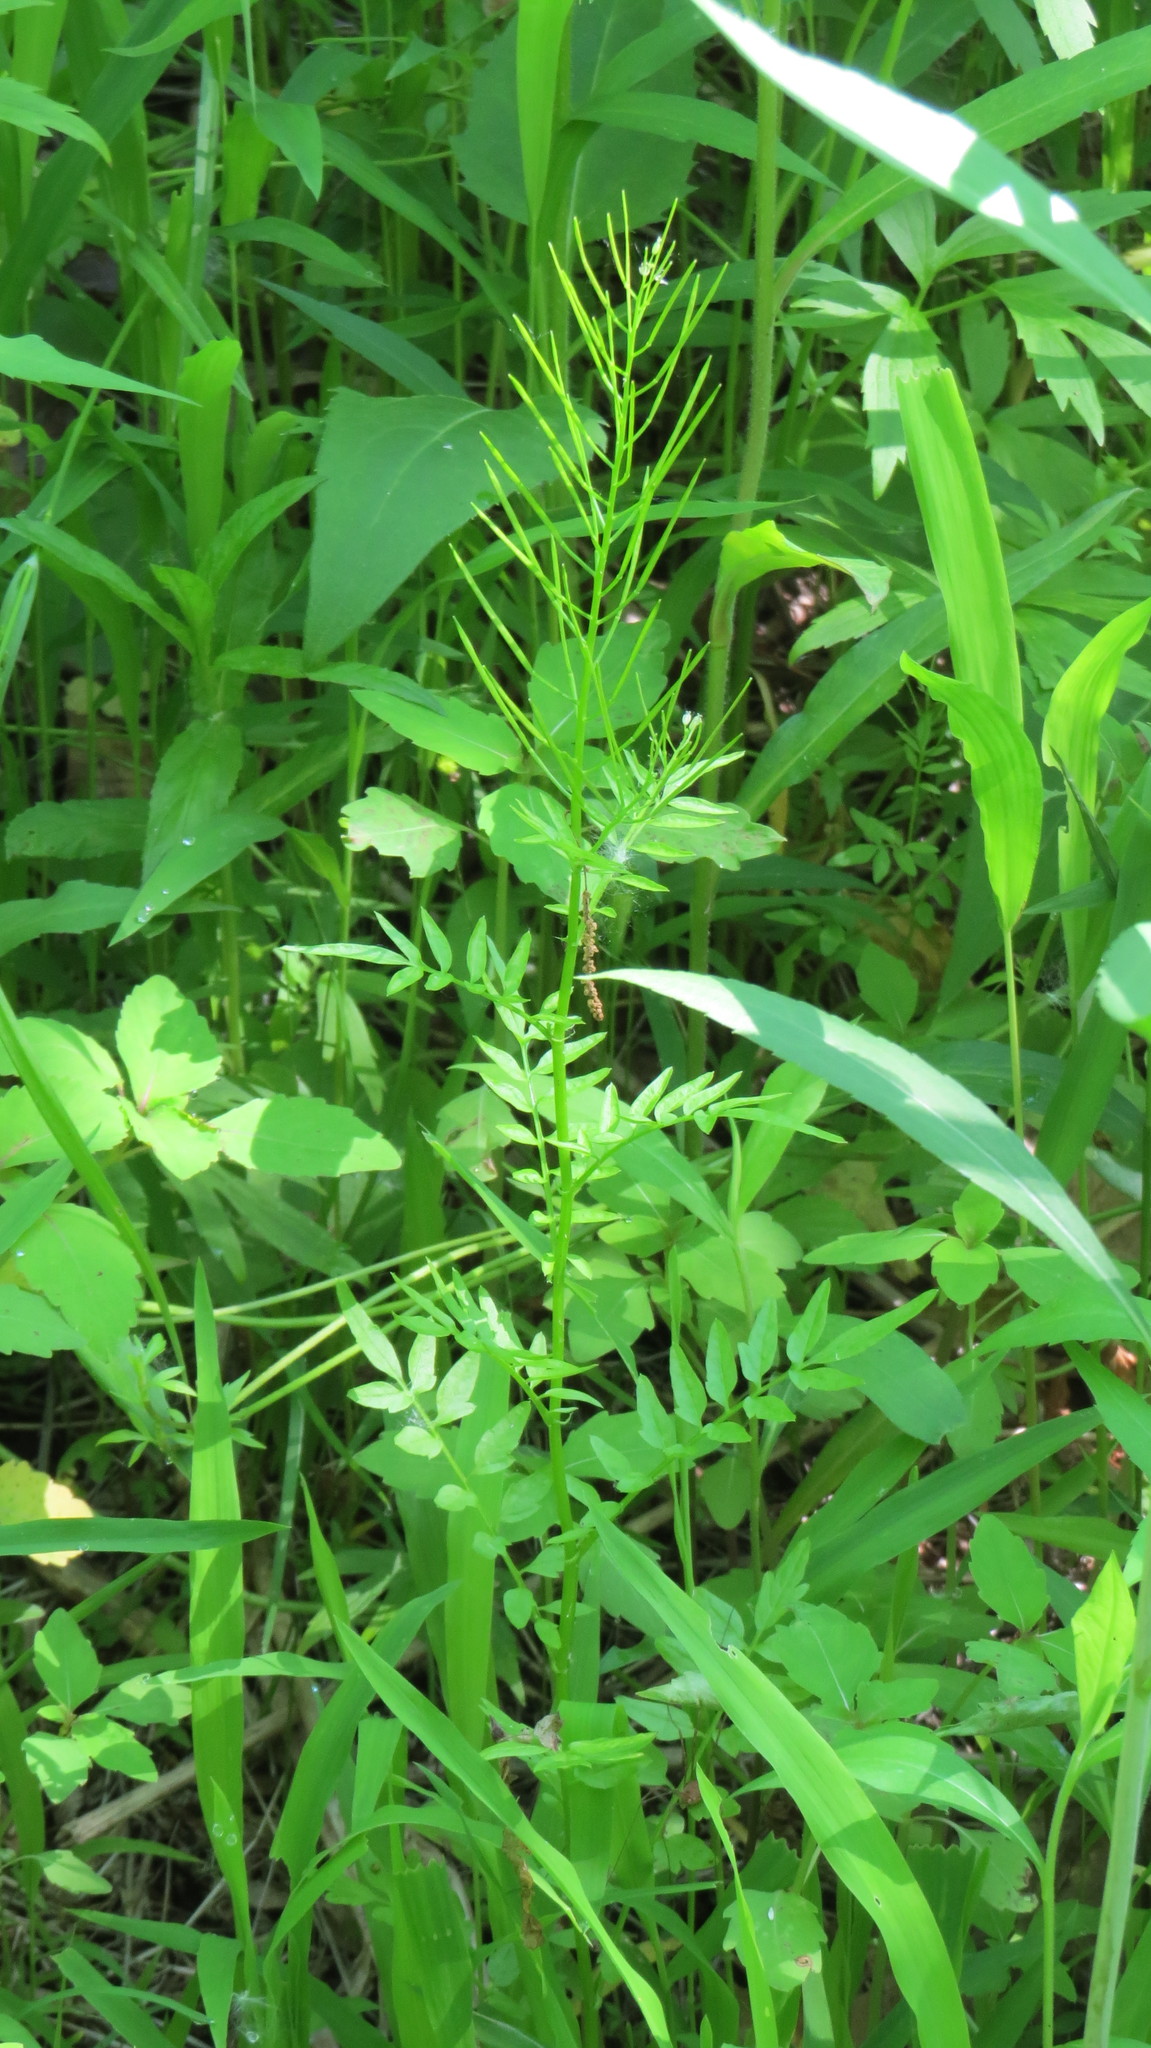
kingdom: Plantae
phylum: Tracheophyta
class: Magnoliopsida
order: Brassicales
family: Brassicaceae
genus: Cardamine
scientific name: Cardamine impatiens
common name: Narrow-leaved bitter-cress
